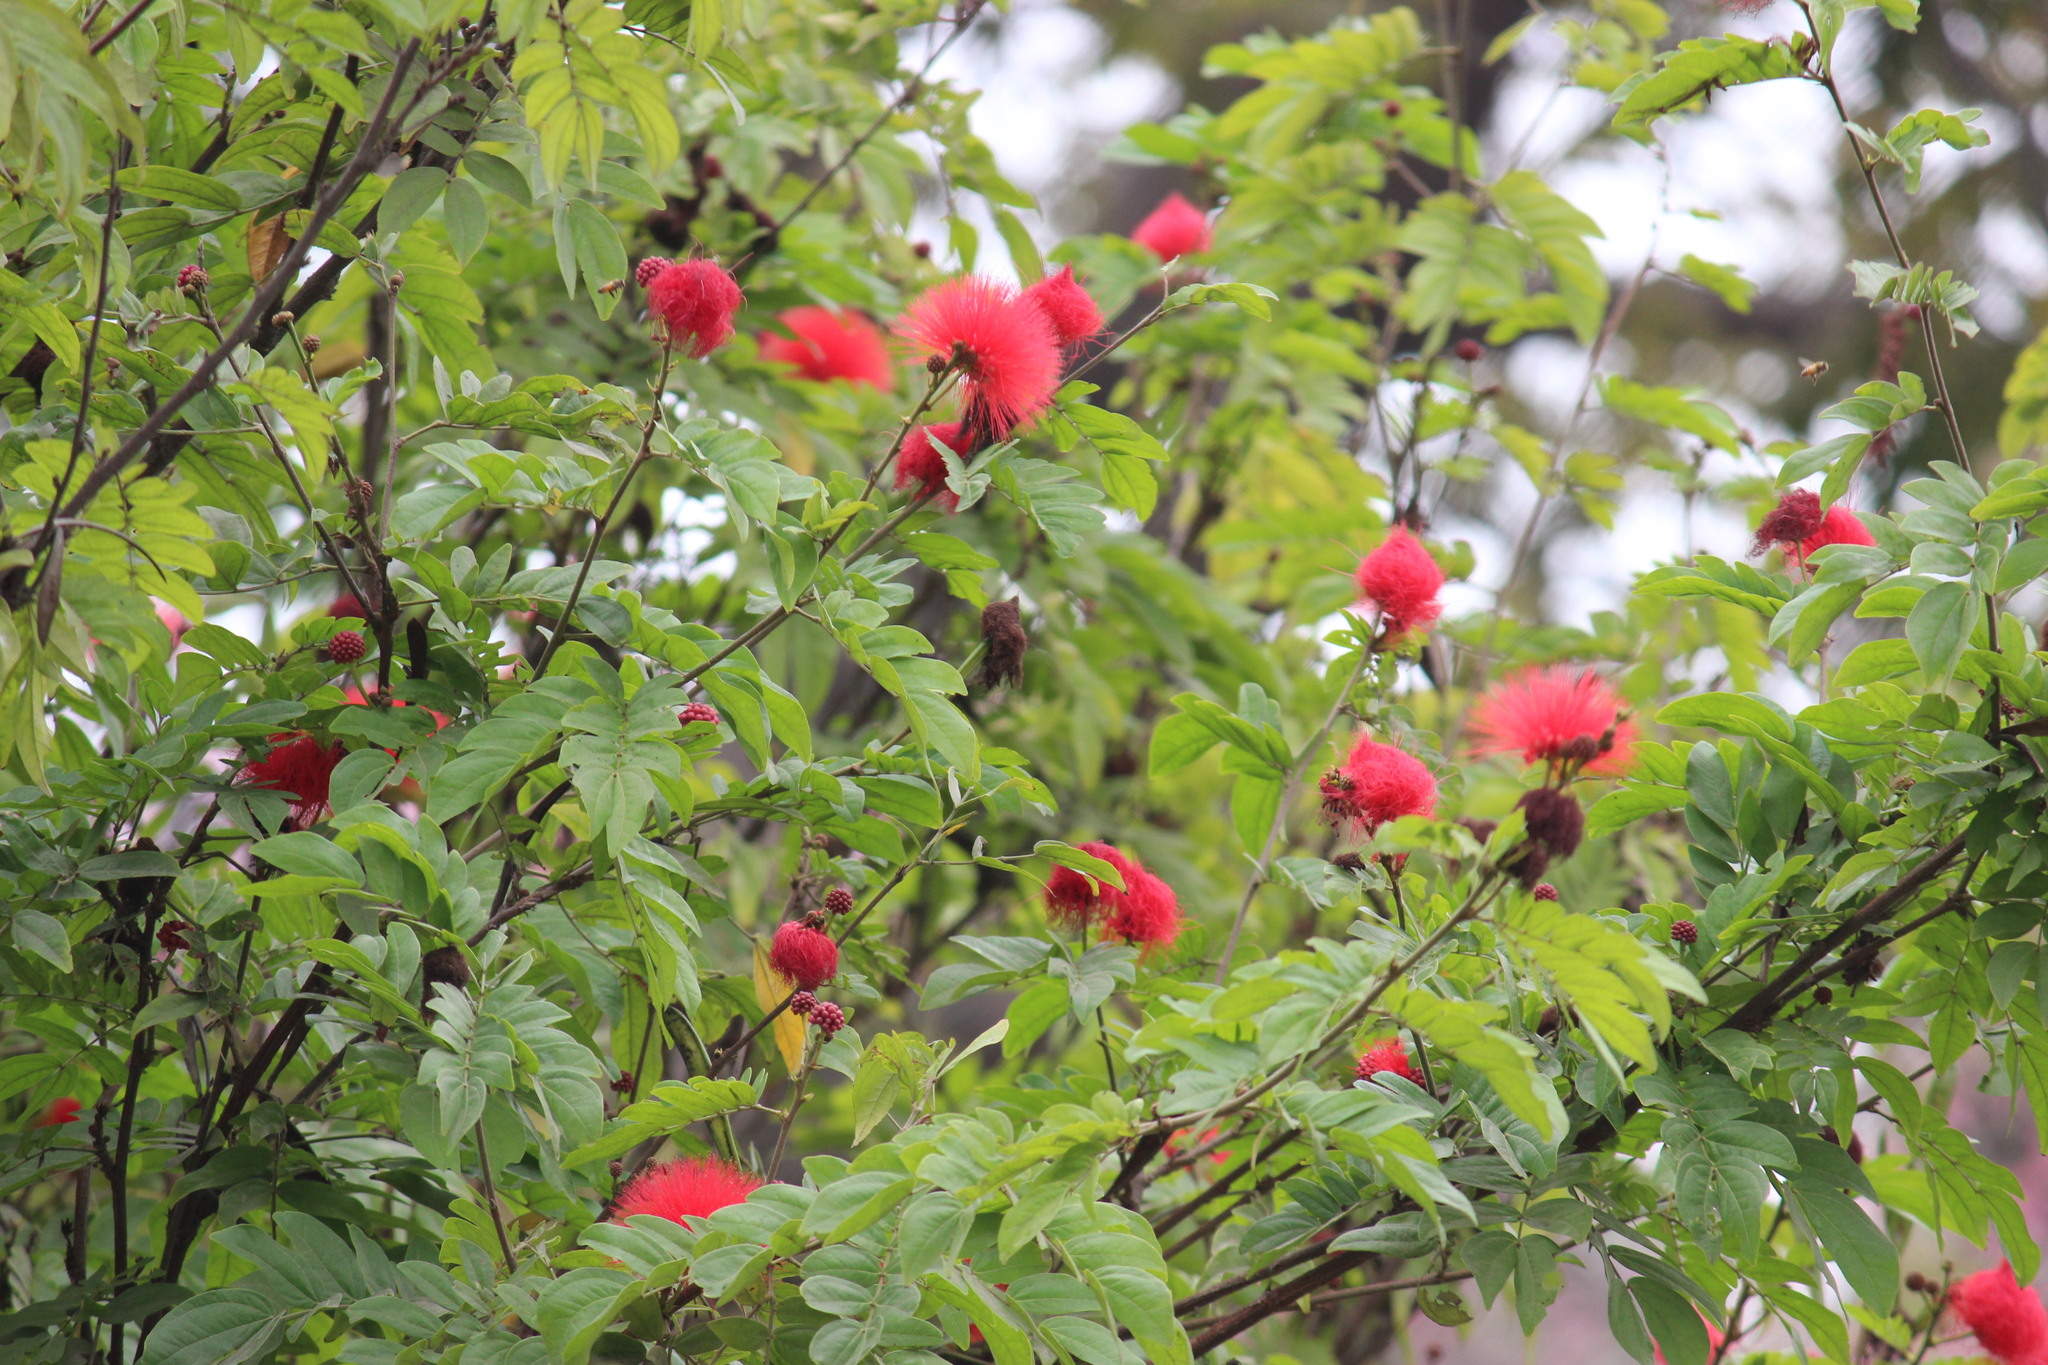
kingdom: Plantae
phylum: Tracheophyta
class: Magnoliopsida
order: Fabales
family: Fabaceae
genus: Calliandra
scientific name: Calliandra haematocephala
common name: Blood red tassel flower
